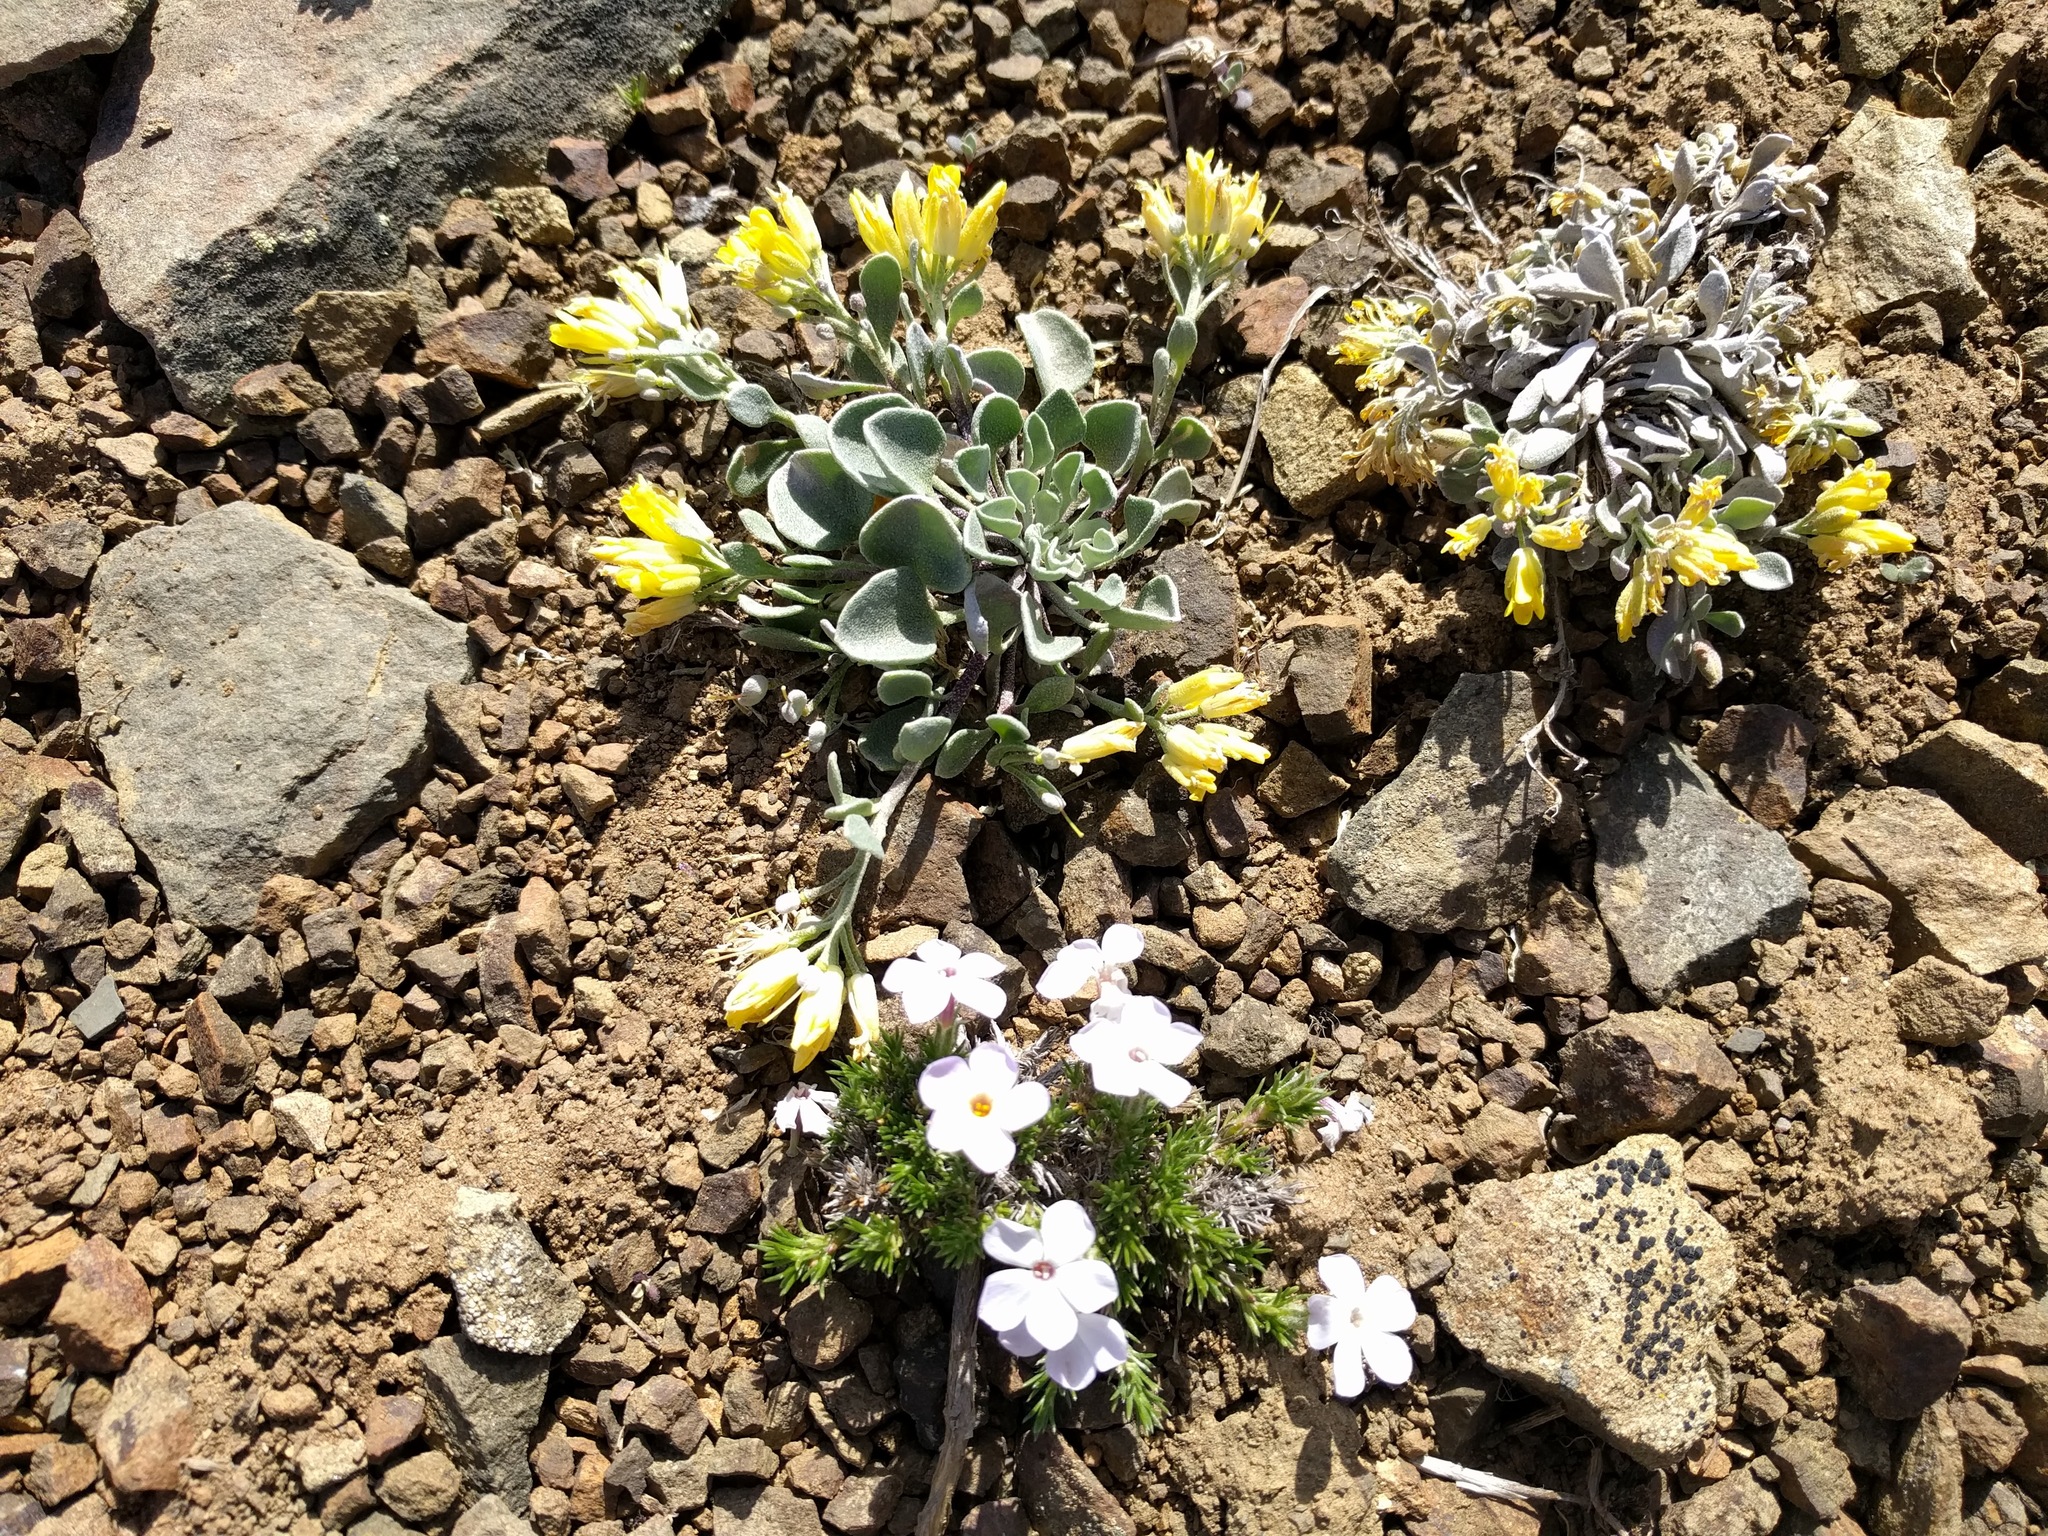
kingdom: Plantae
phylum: Tracheophyta
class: Magnoliopsida
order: Brassicales
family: Brassicaceae
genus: Physaria
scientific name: Physaria alpestris
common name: Washington twinpod
